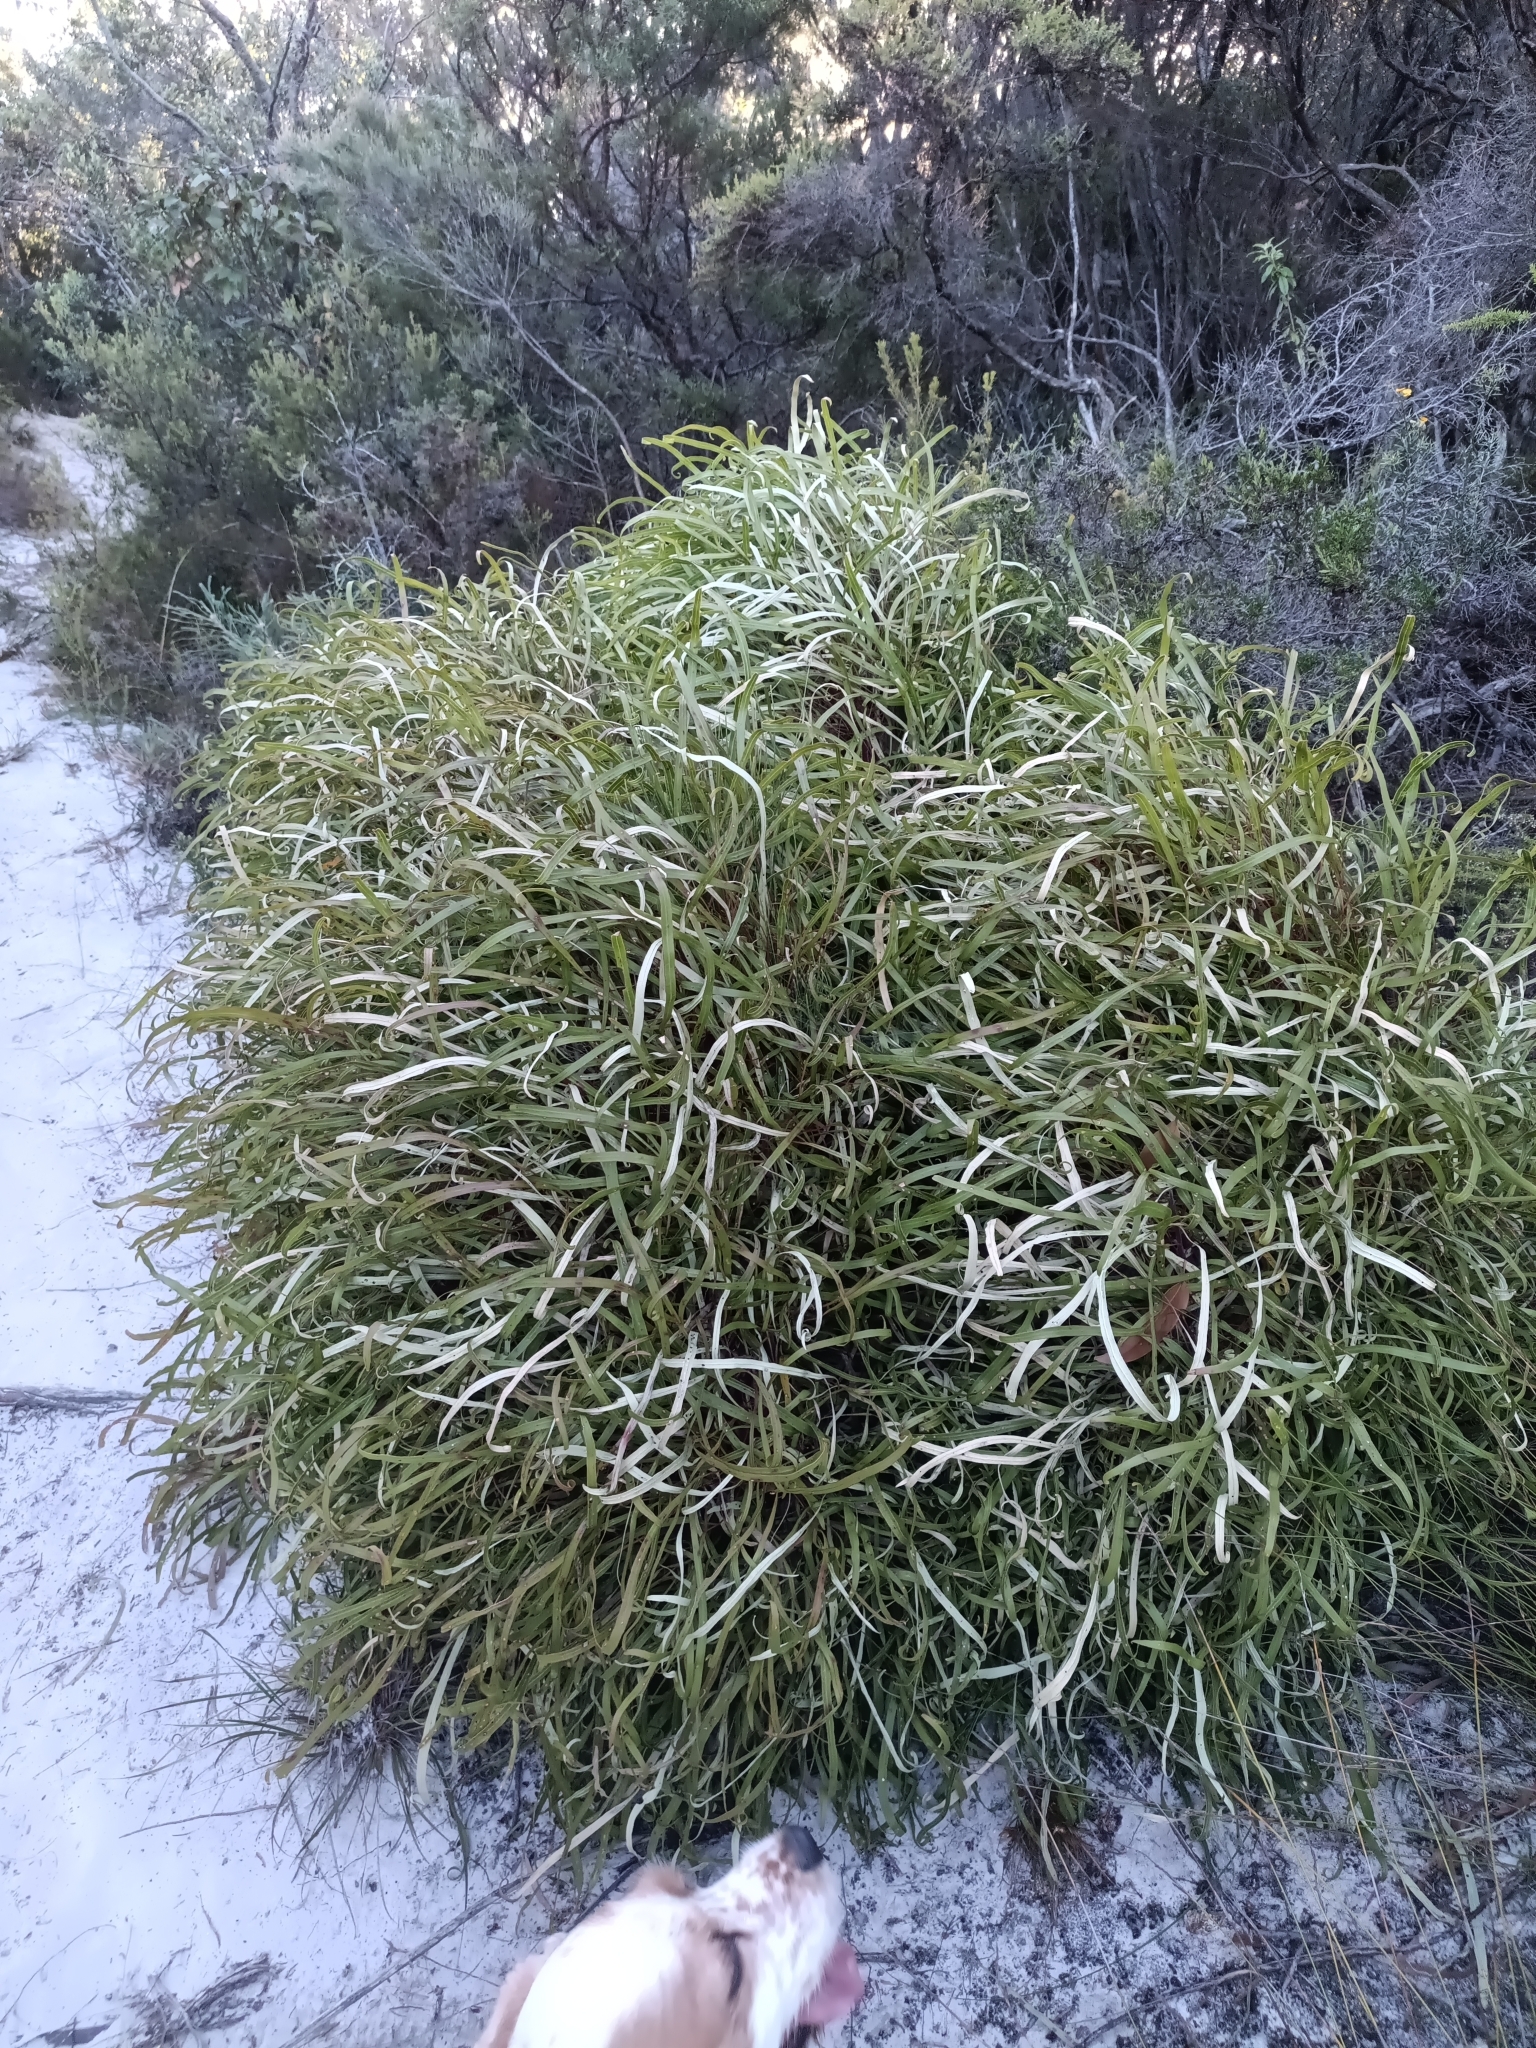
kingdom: Plantae
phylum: Tracheophyta
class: Magnoliopsida
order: Proteales
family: Proteaceae
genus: Conospermum
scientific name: Conospermum capitatum
